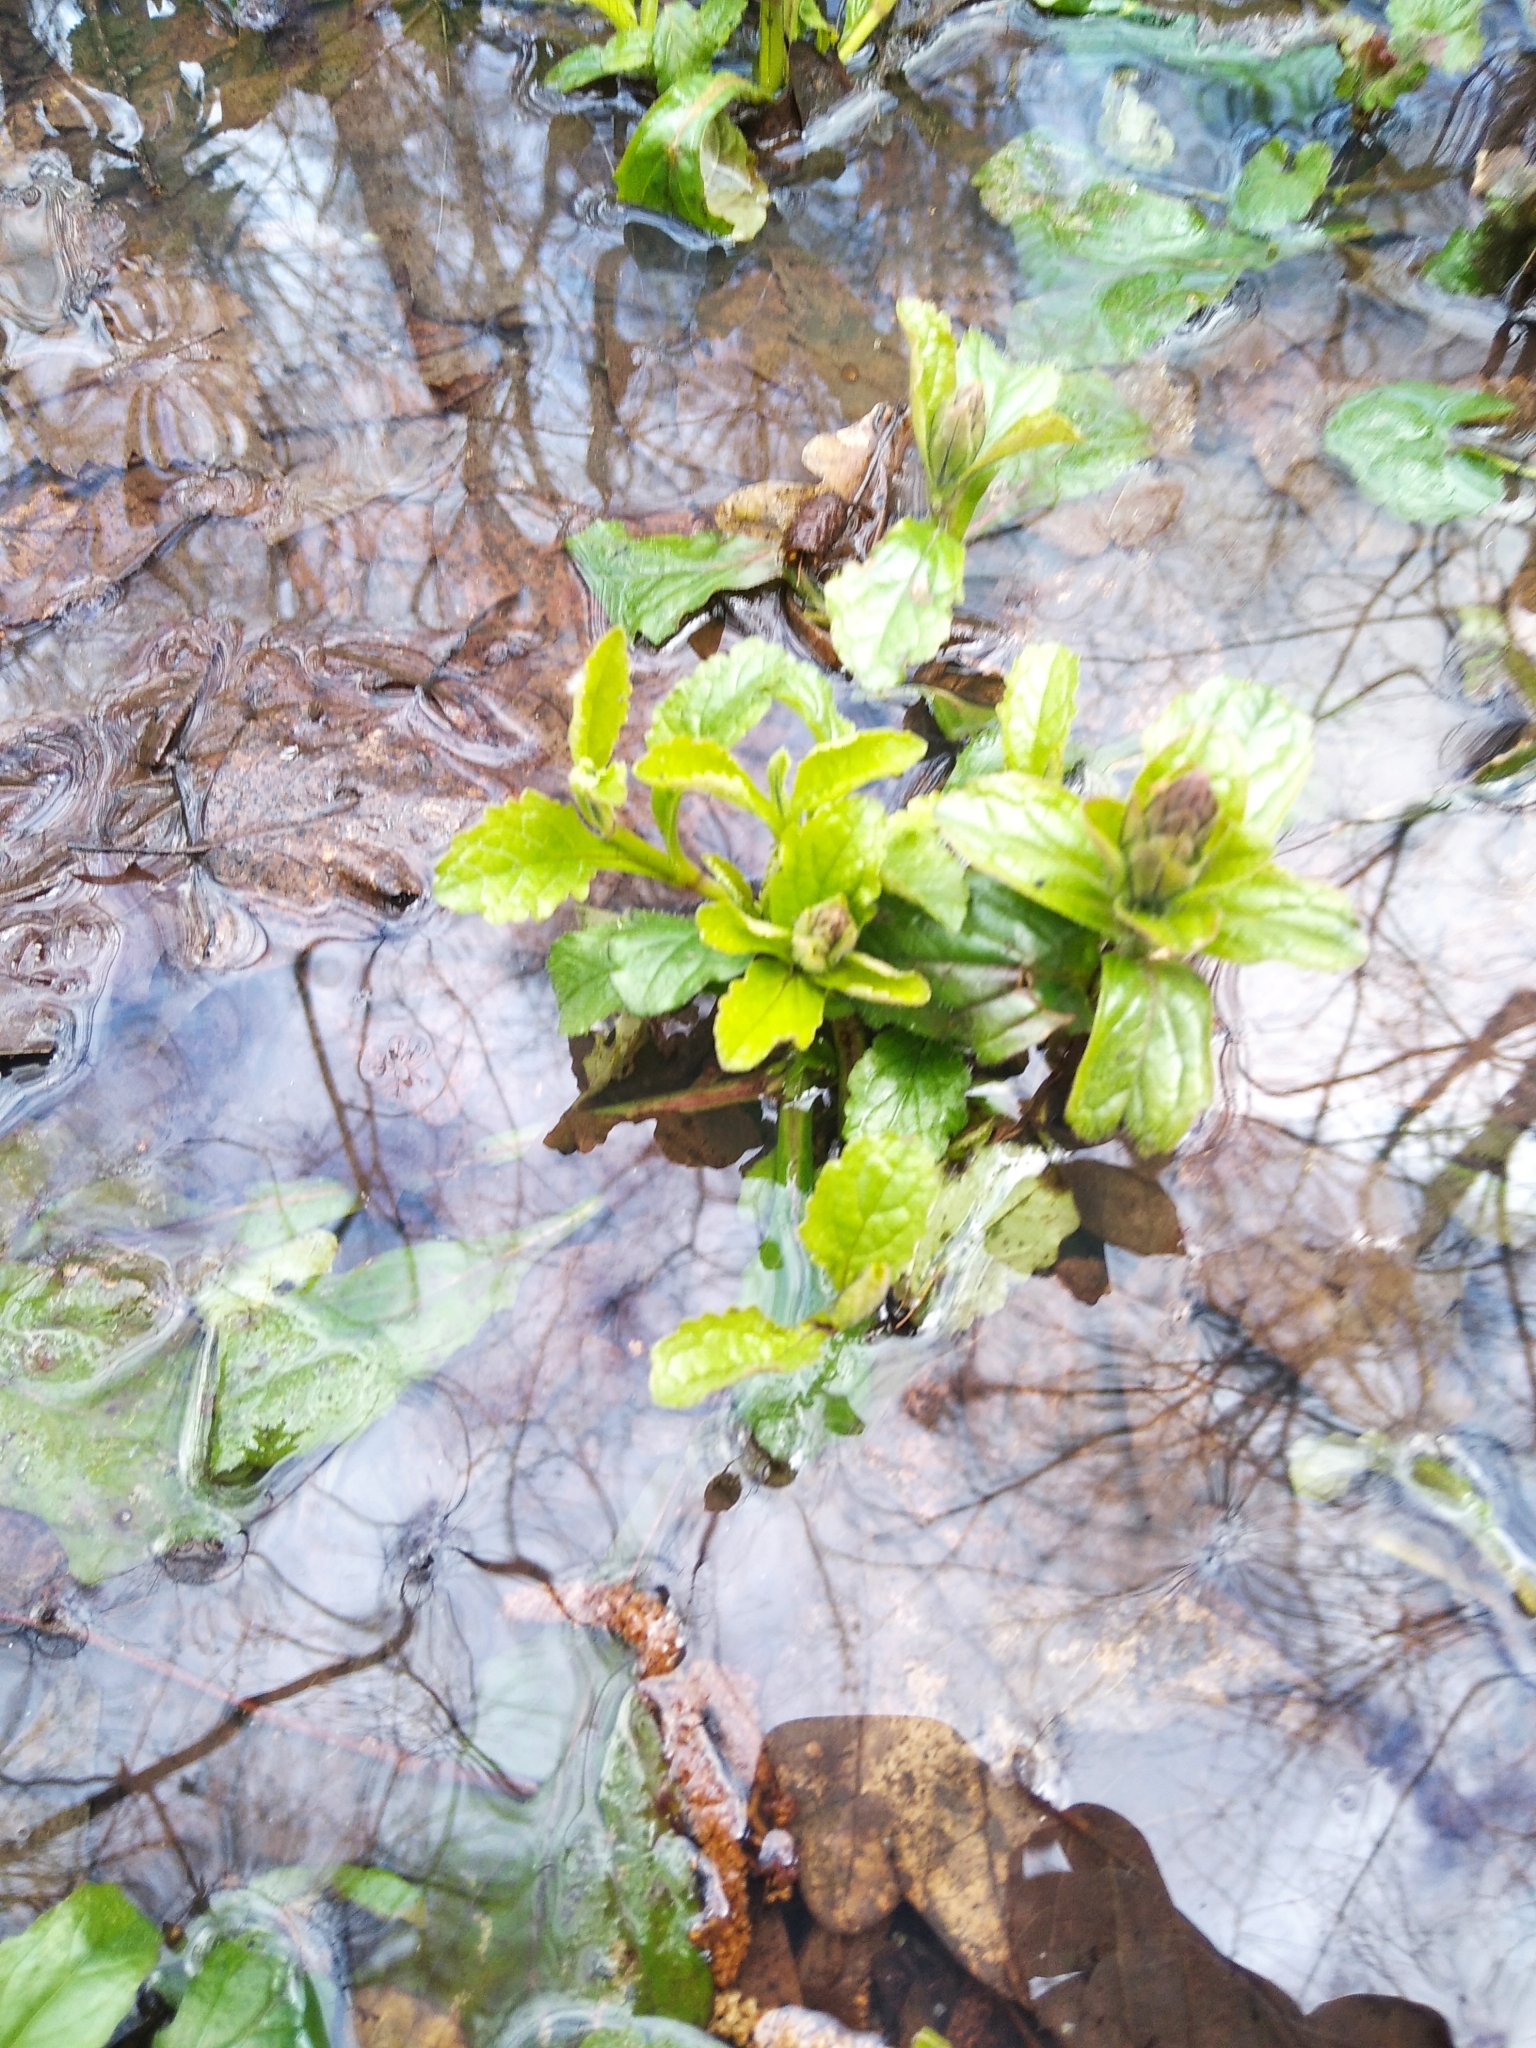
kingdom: Plantae
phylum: Tracheophyta
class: Magnoliopsida
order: Lamiales
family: Lamiaceae
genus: Ajuga
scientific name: Ajuga reptans
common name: Bugle
